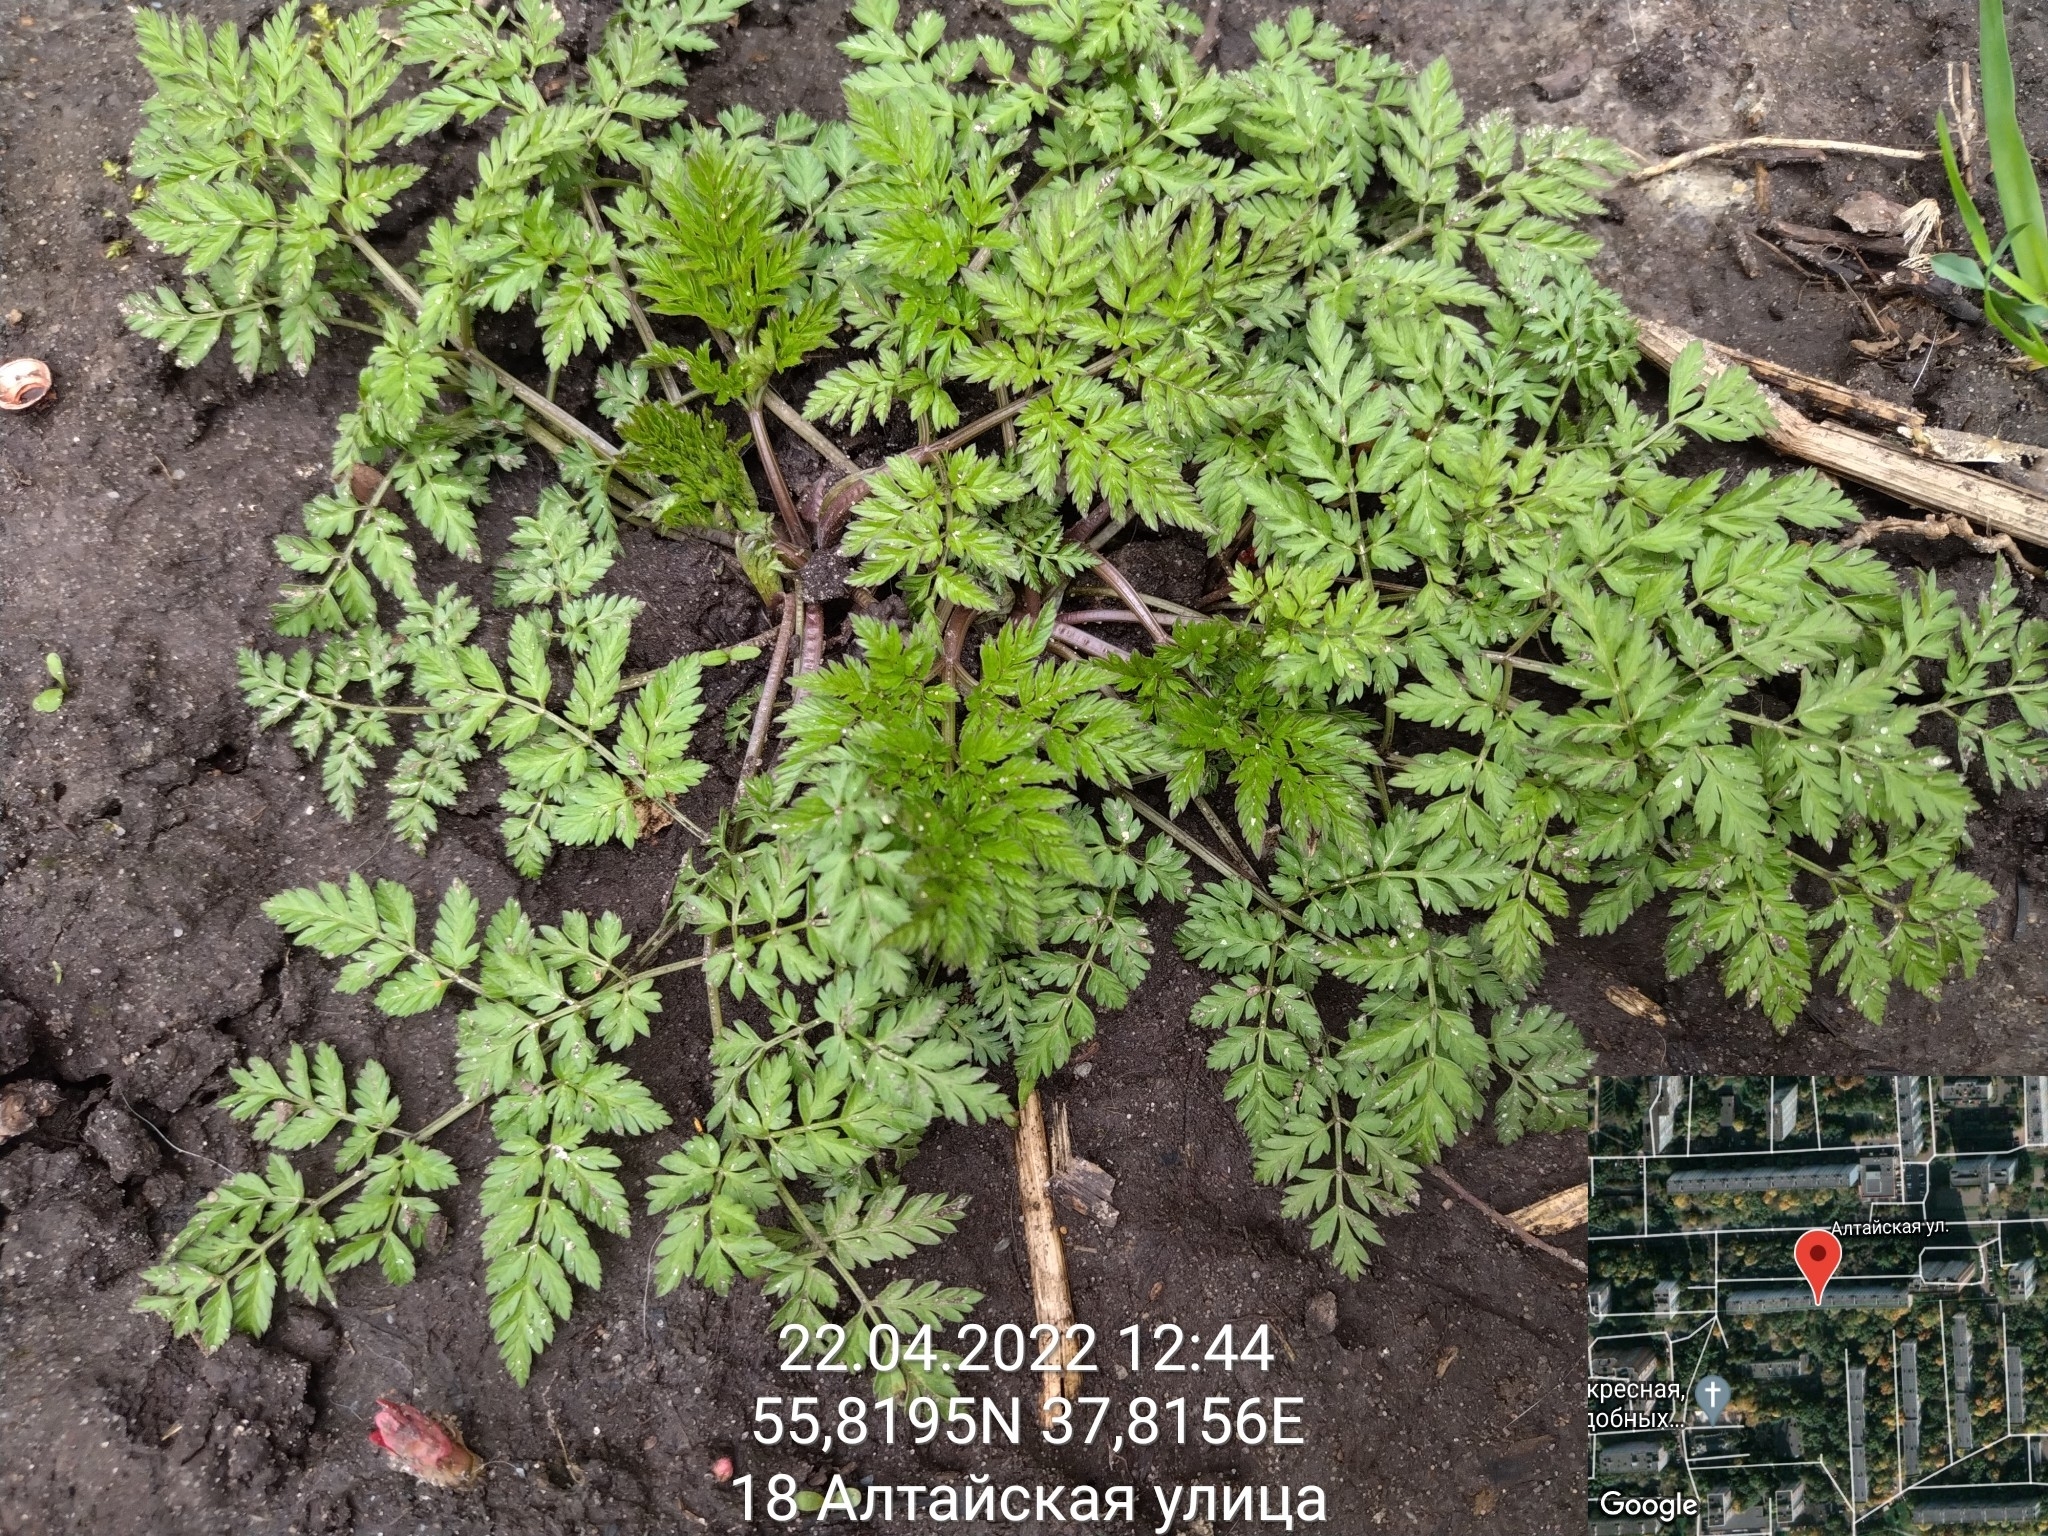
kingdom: Plantae
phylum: Tracheophyta
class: Magnoliopsida
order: Apiales
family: Apiaceae
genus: Anthriscus
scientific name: Anthriscus sylvestris
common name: Cow parsley
